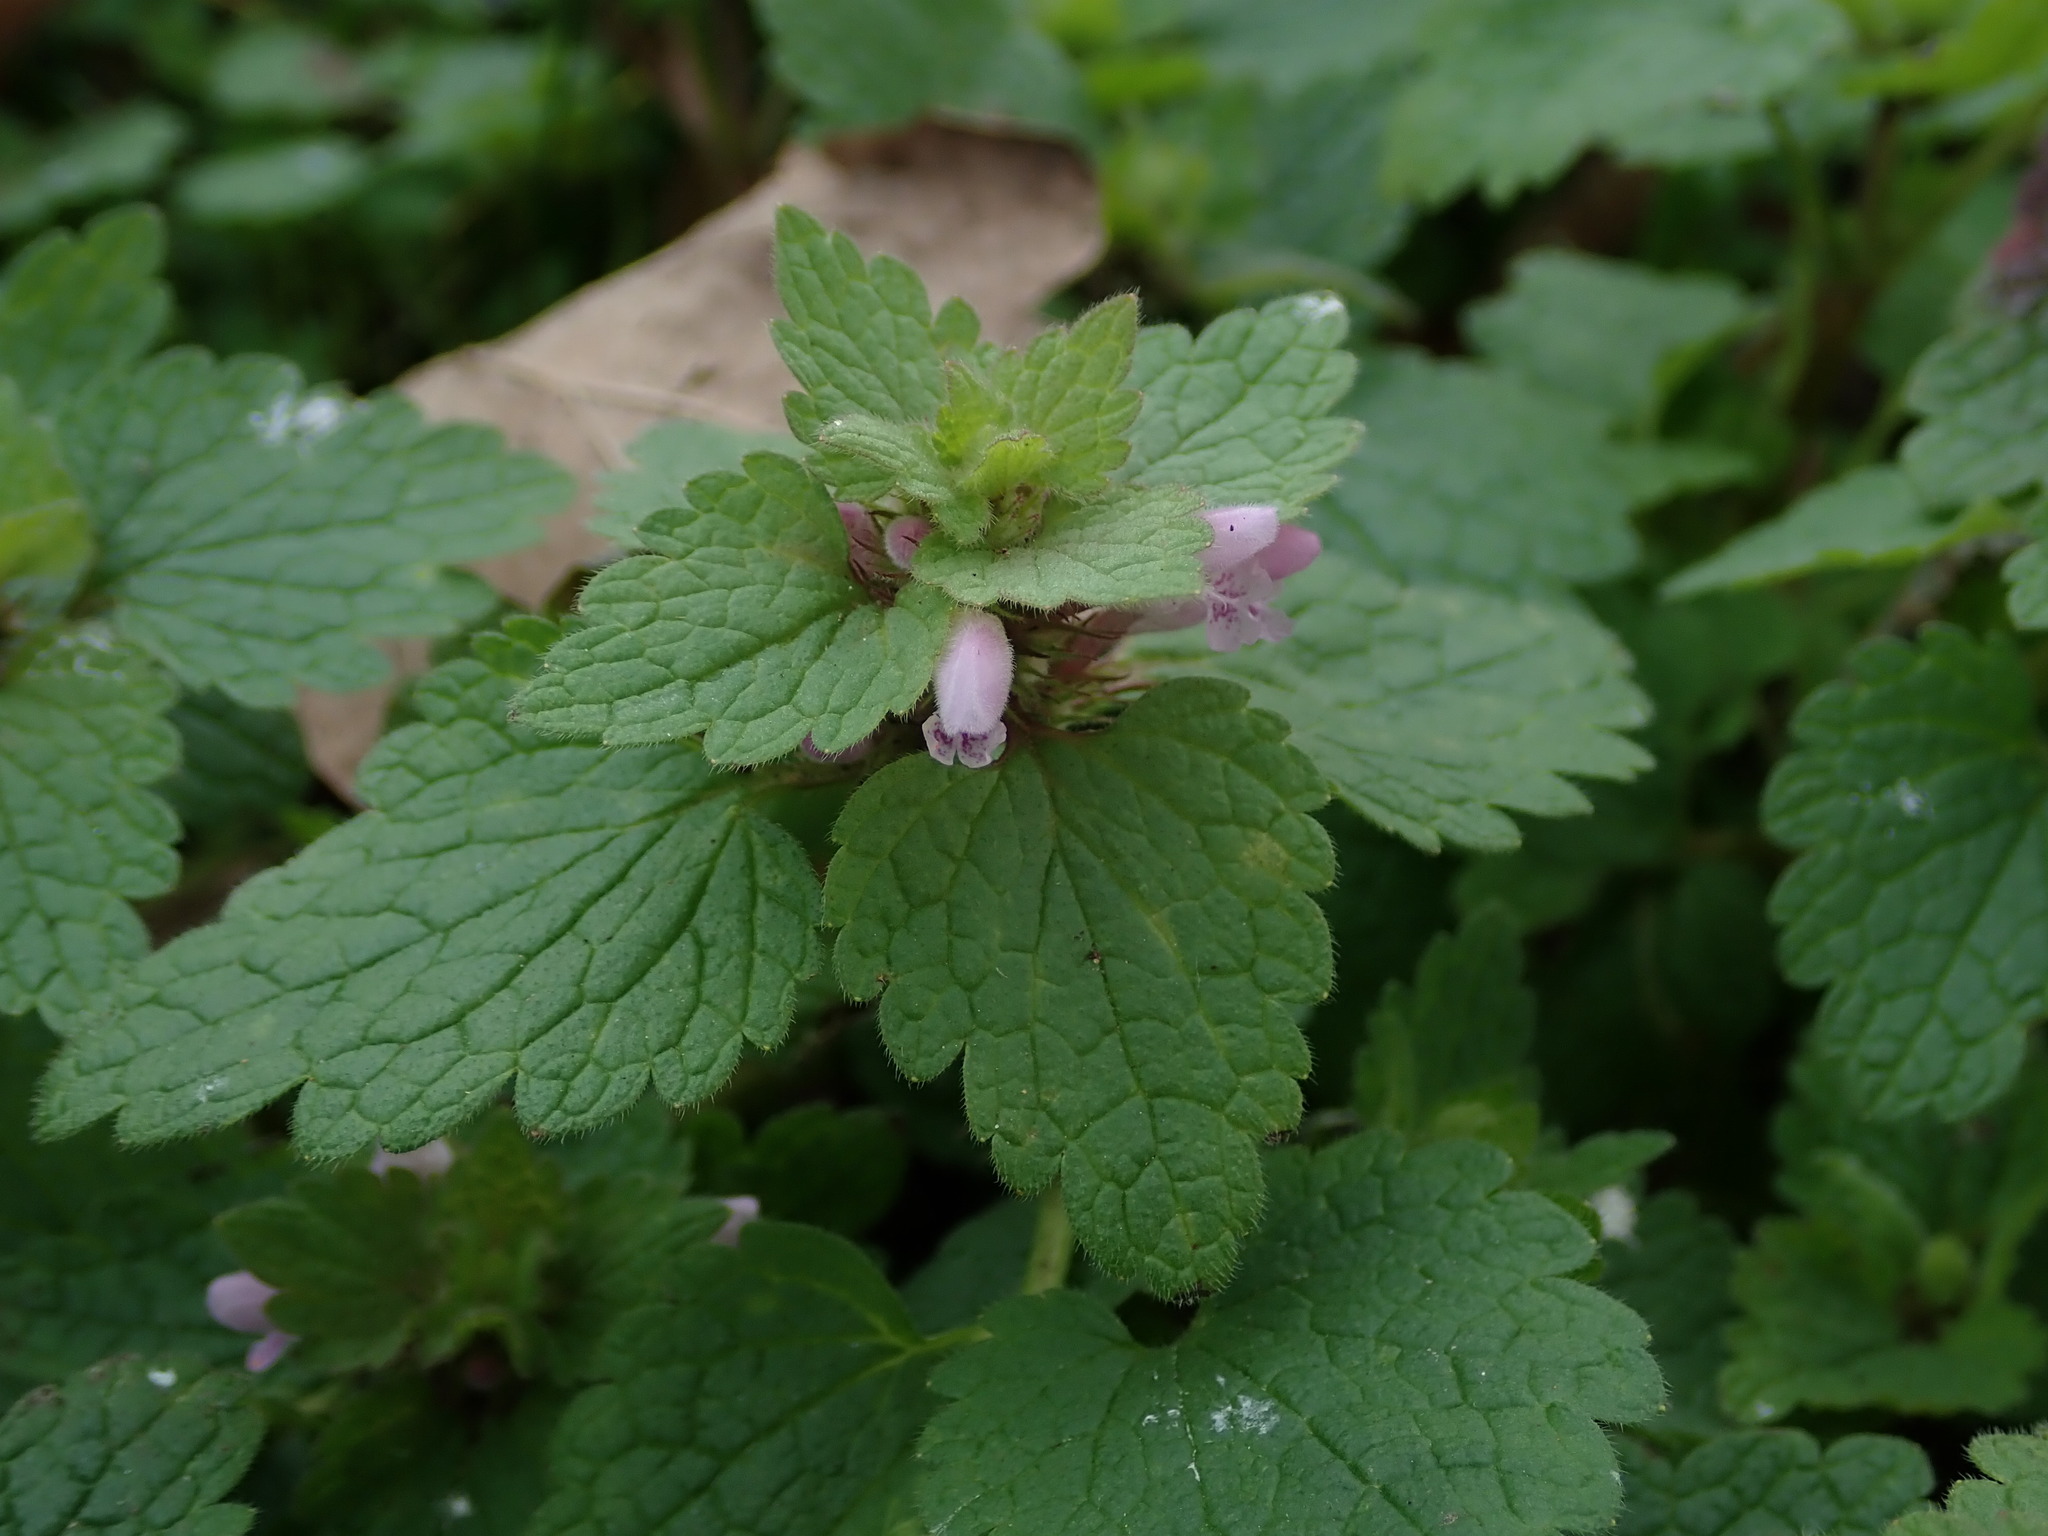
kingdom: Plantae
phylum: Tracheophyta
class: Magnoliopsida
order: Lamiales
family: Lamiaceae
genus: Lamium
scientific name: Lamium purpureum
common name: Red dead-nettle
